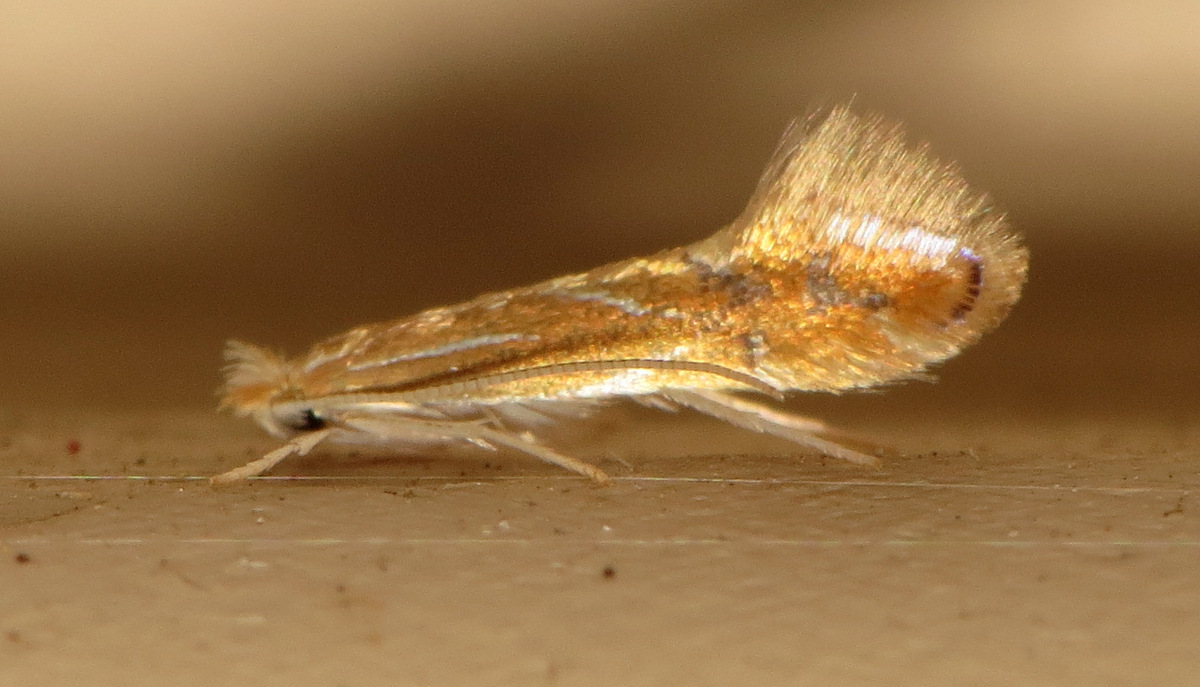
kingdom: Animalia
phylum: Arthropoda
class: Insecta
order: Lepidoptera
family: Gracillariidae
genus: Phyllonorycter
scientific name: Phyllonorycter basistrigella
